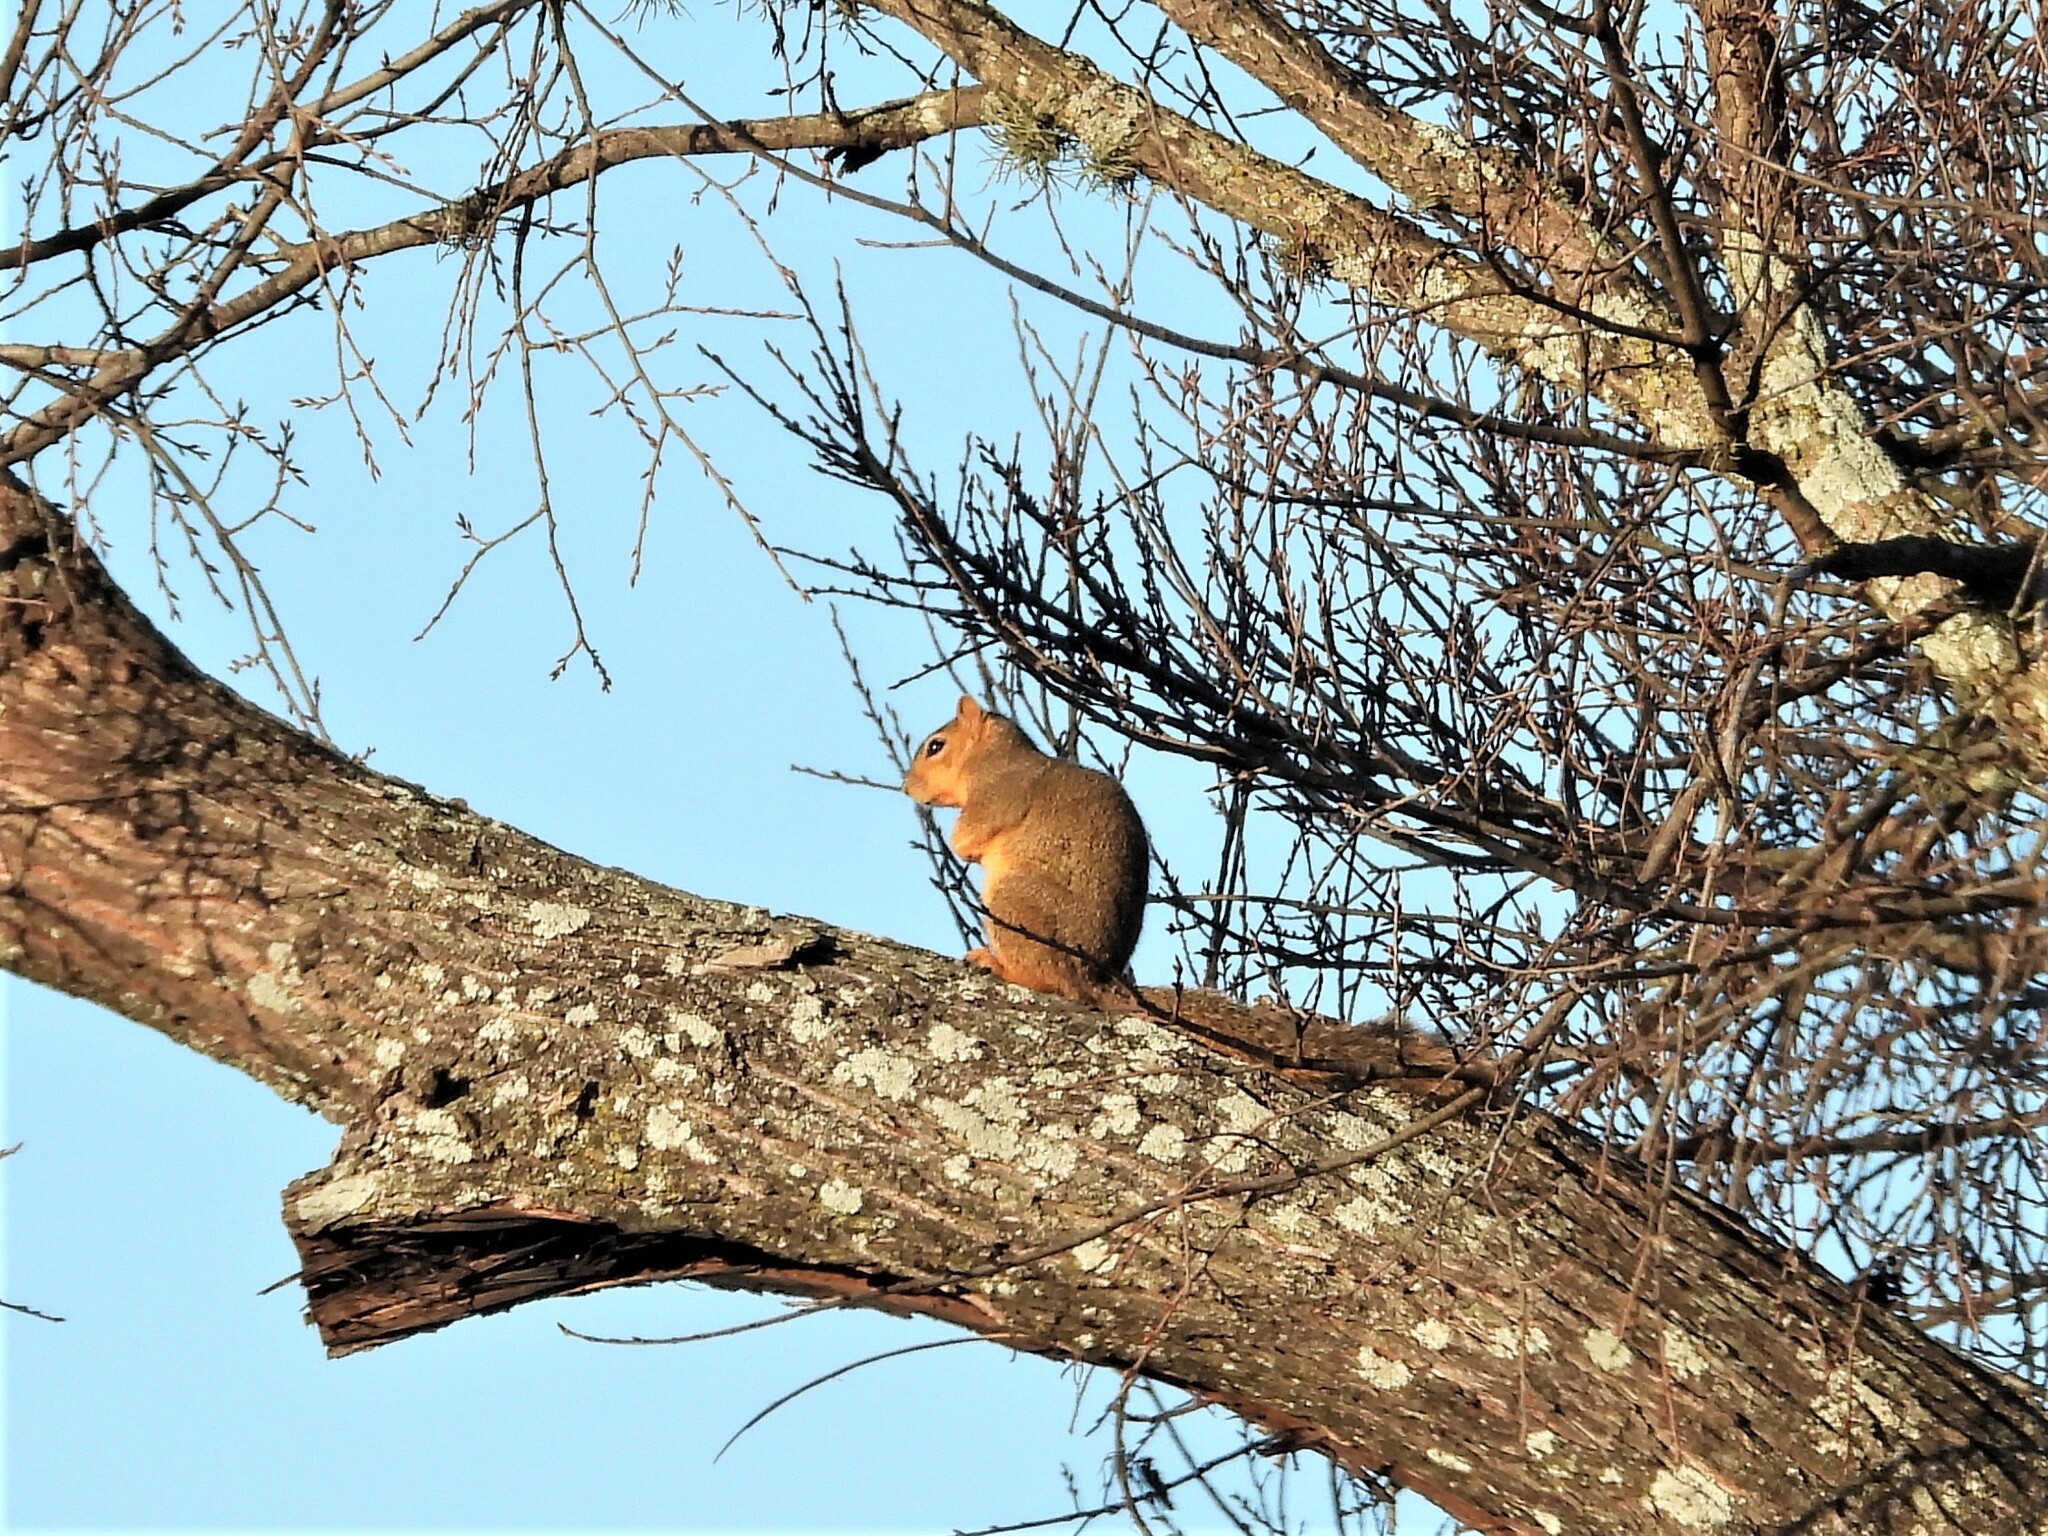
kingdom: Animalia
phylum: Chordata
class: Mammalia
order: Rodentia
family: Sciuridae
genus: Sciurus
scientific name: Sciurus niger
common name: Fox squirrel
